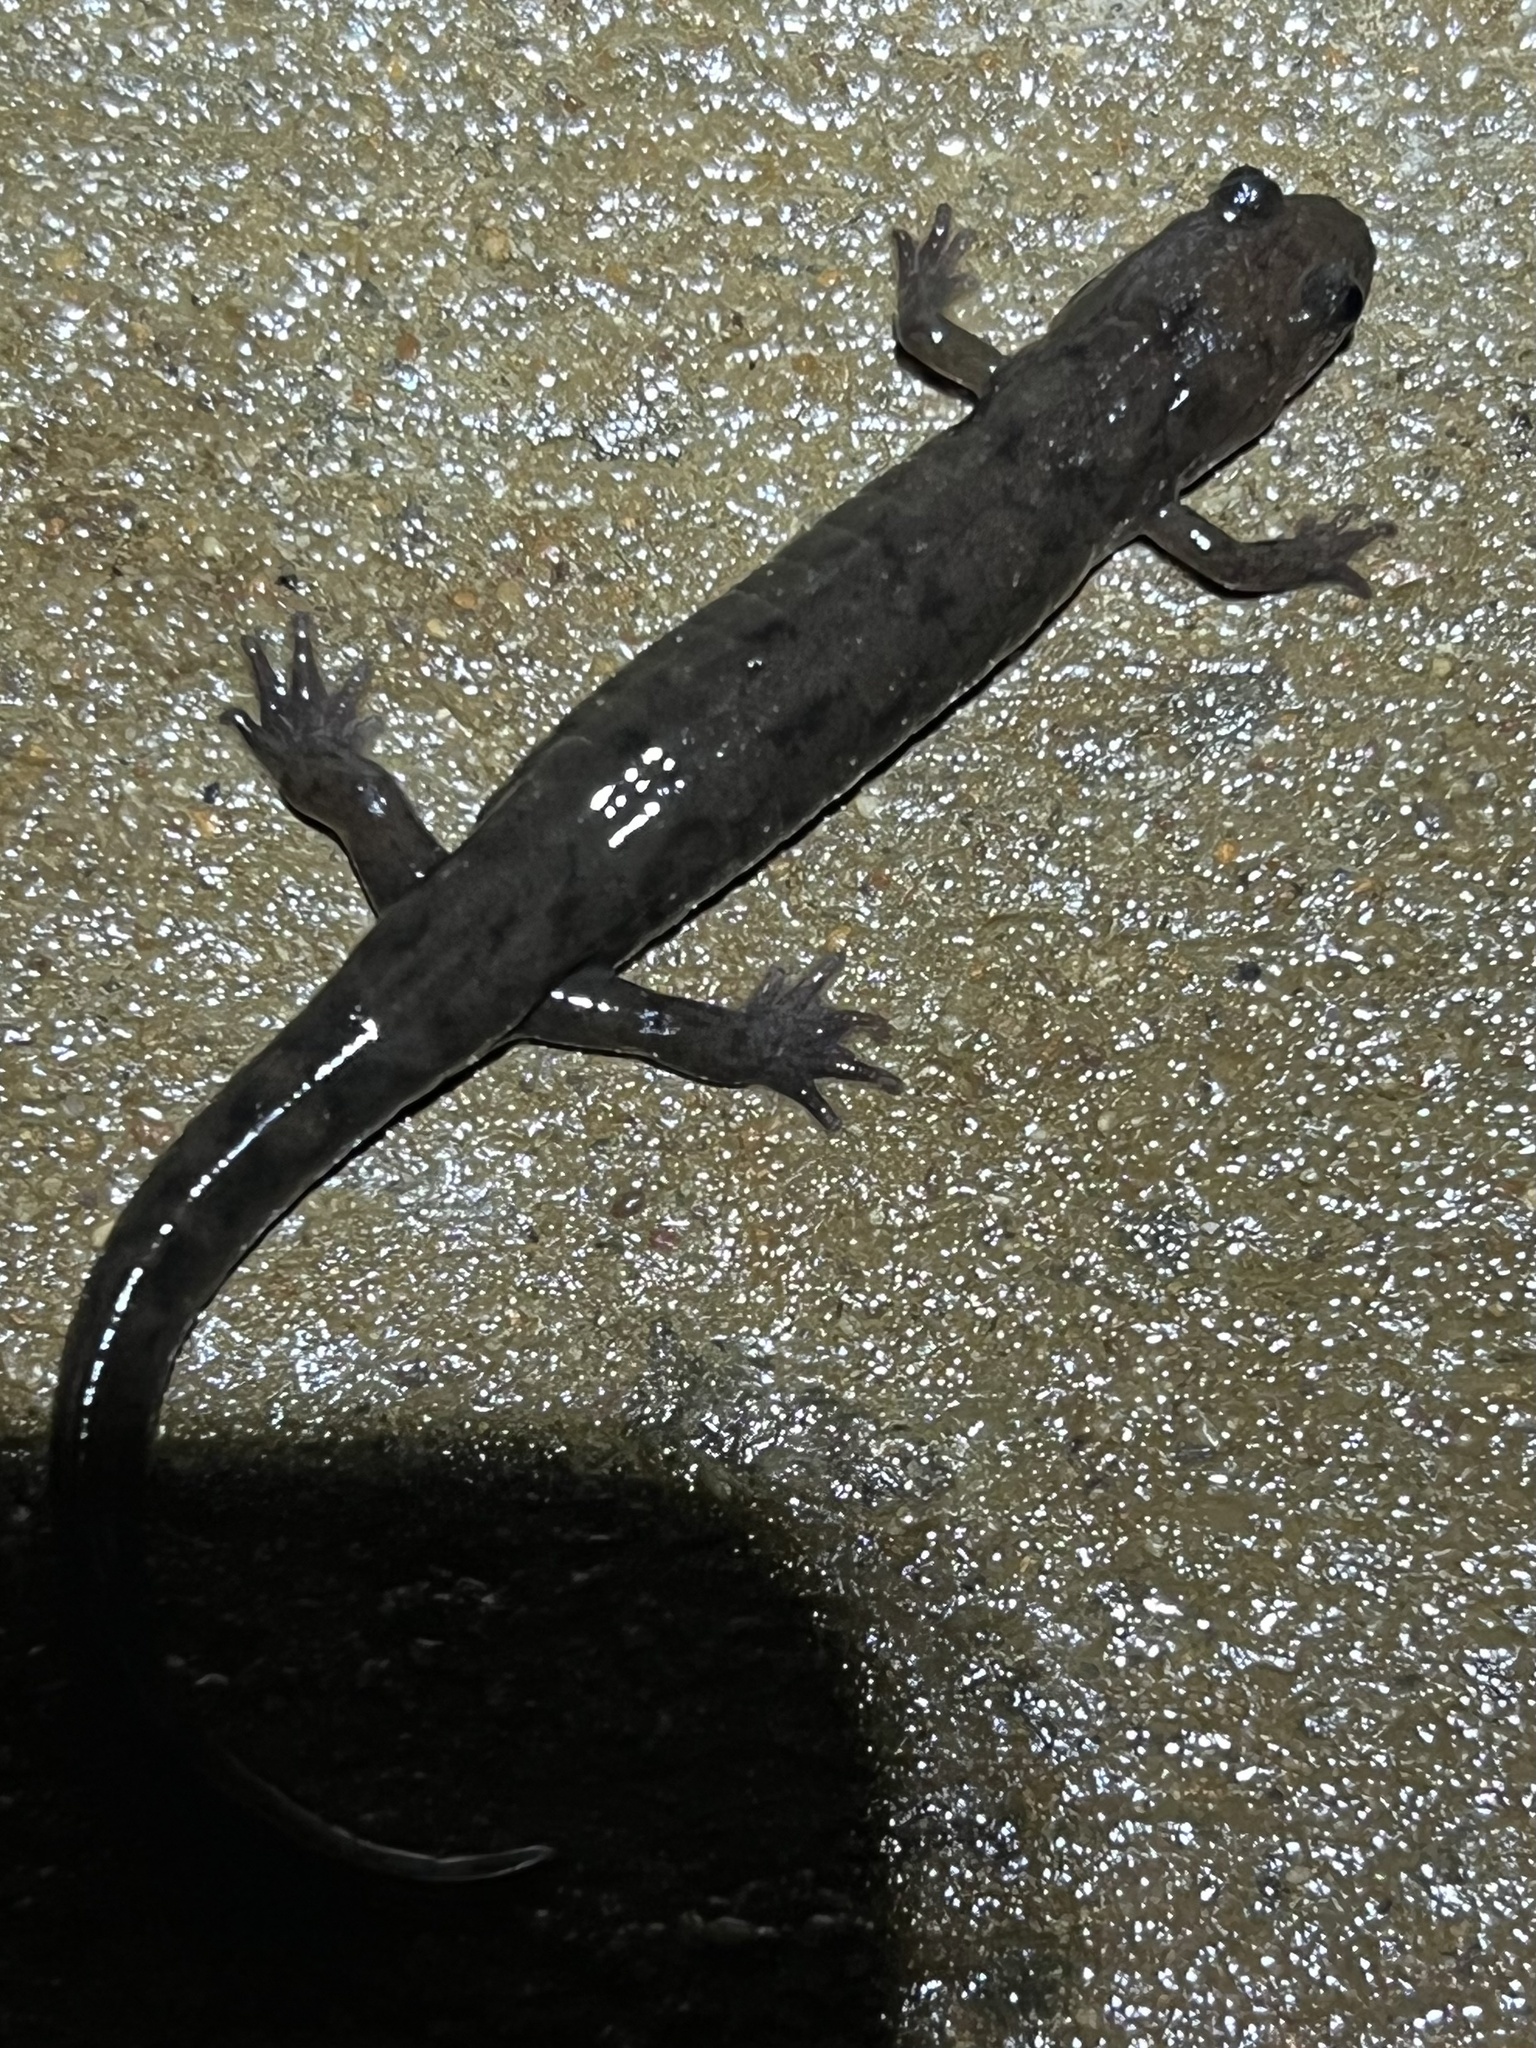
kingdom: Animalia
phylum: Chordata
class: Amphibia
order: Caudata
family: Plethodontidae
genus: Desmognathus
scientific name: Desmognathus monticola
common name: Seal salamander
